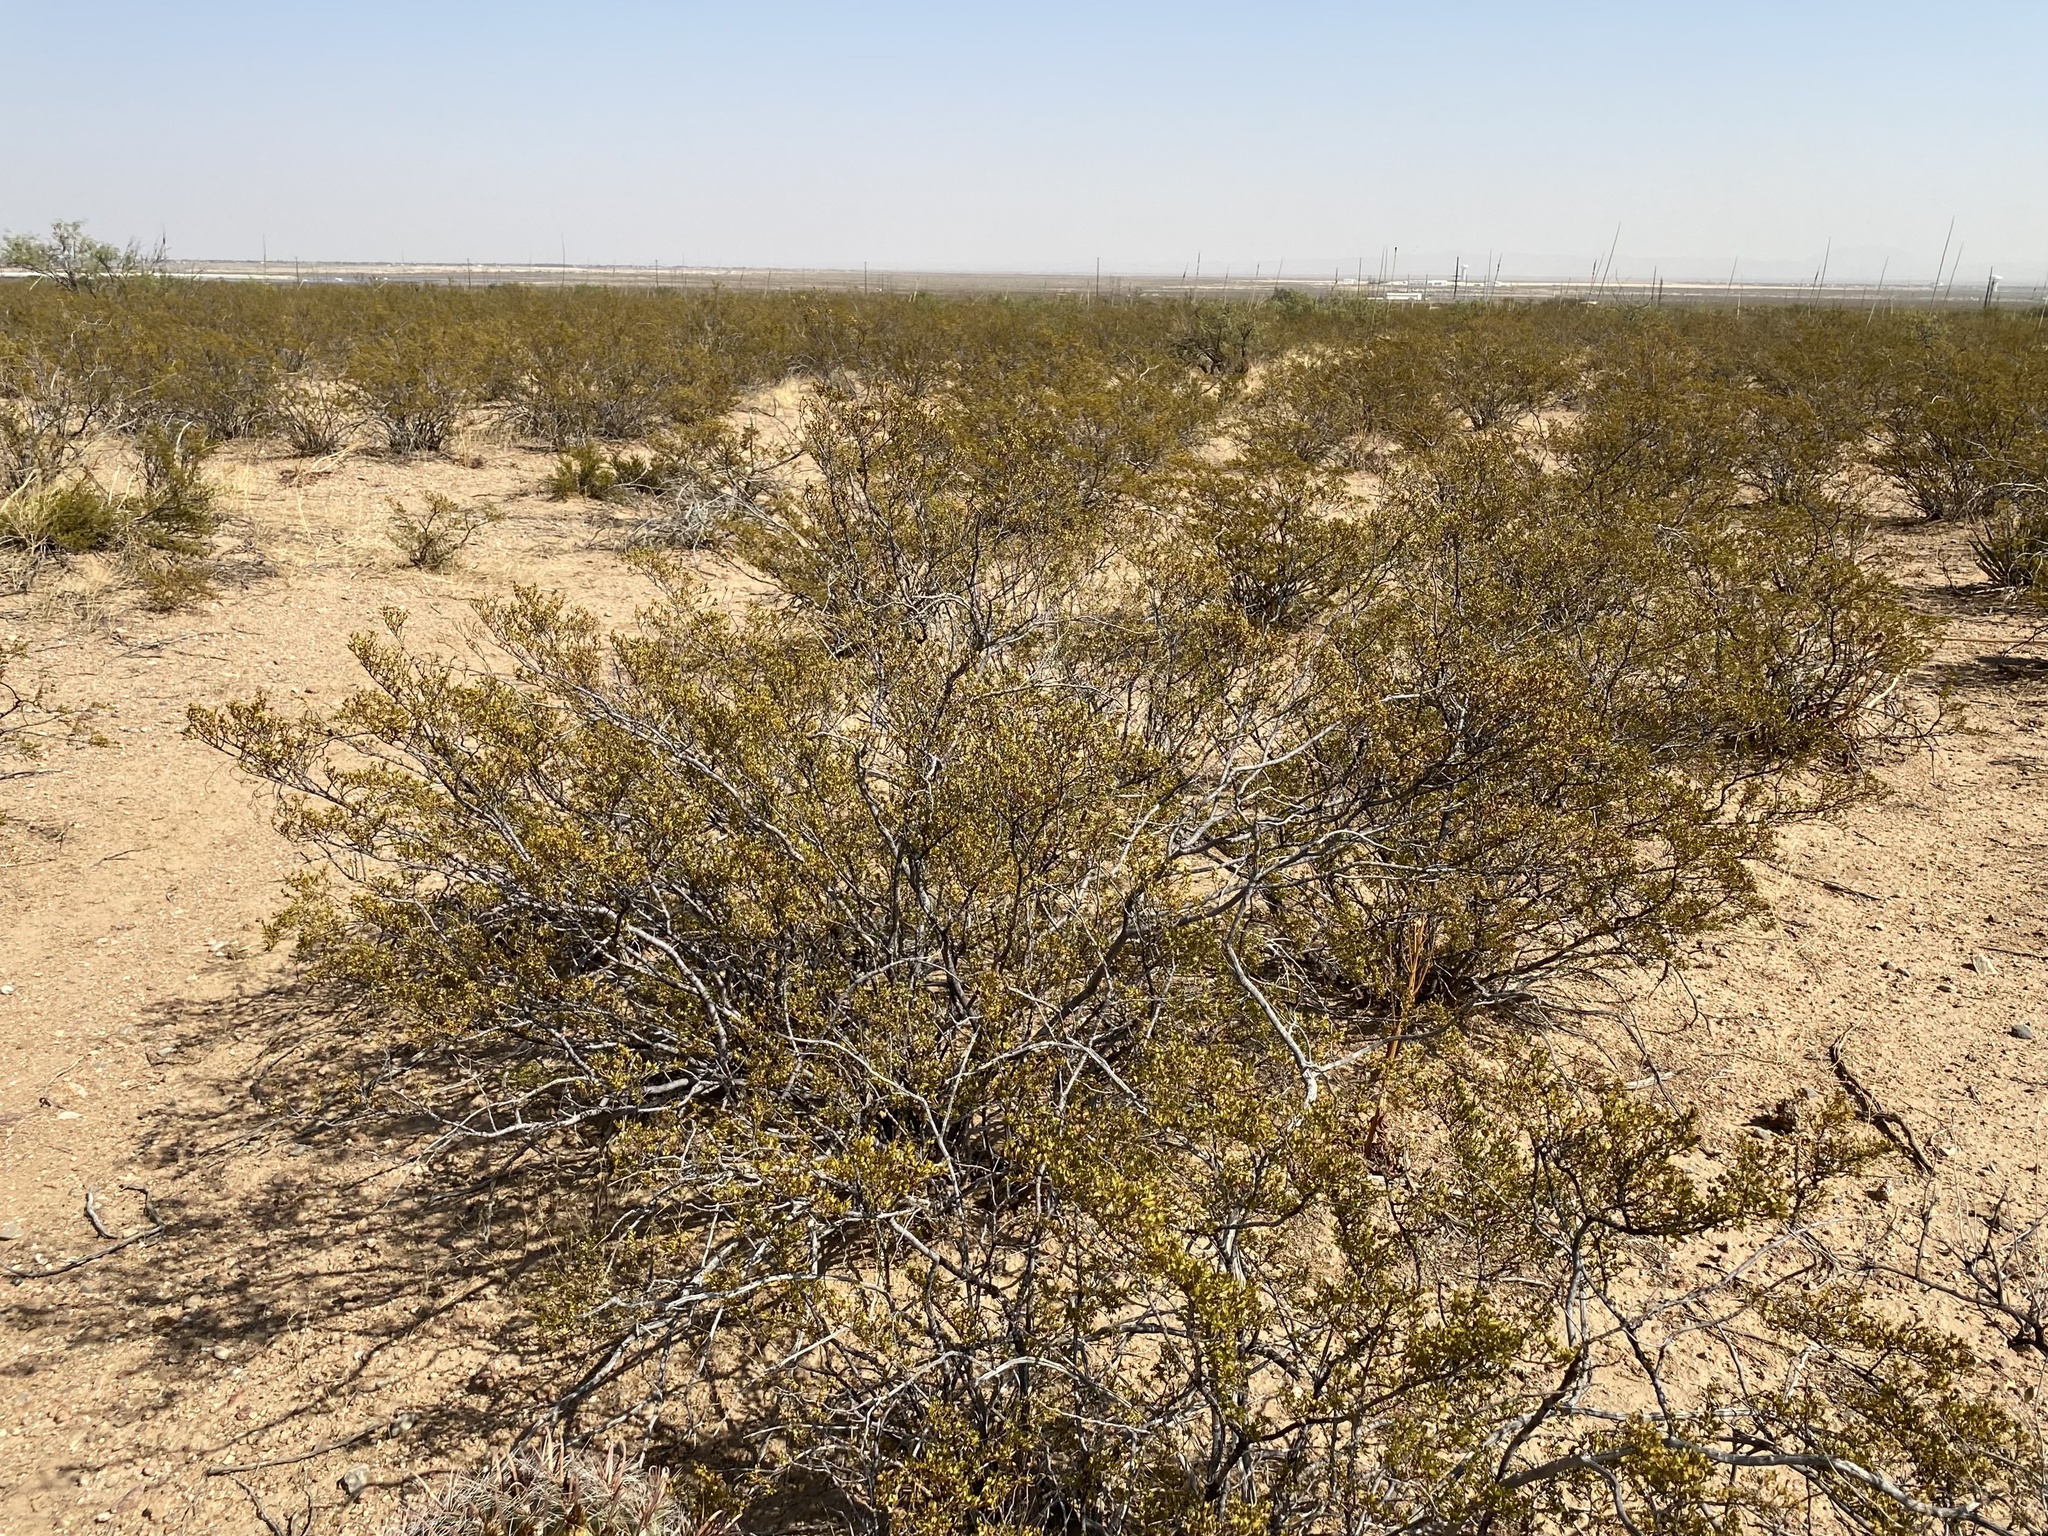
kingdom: Plantae
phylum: Tracheophyta
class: Magnoliopsida
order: Zygophyllales
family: Zygophyllaceae
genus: Larrea
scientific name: Larrea tridentata
